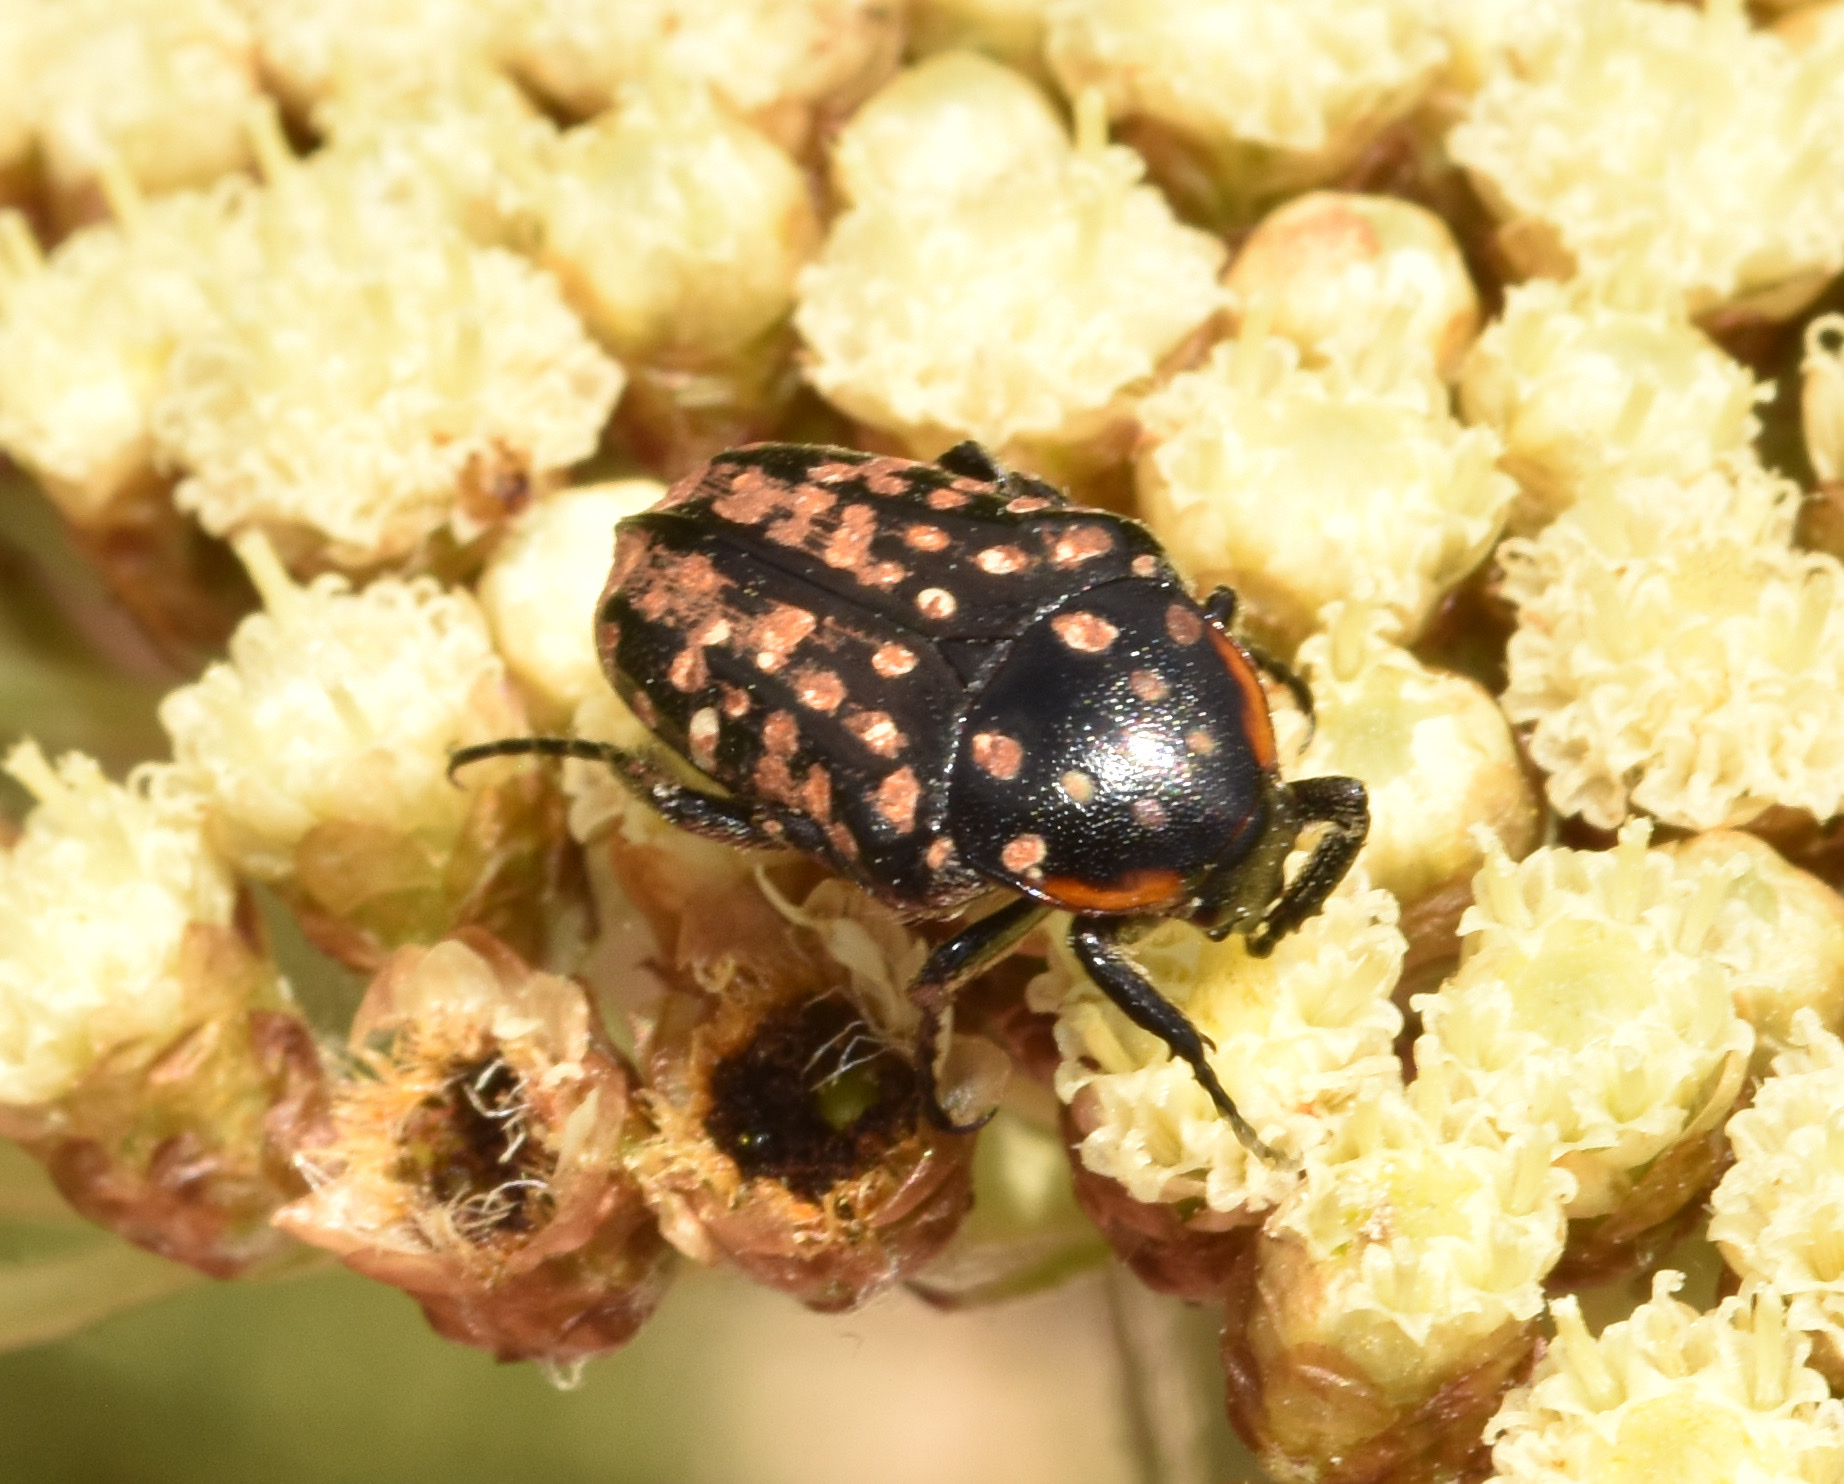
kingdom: Animalia
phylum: Arthropoda
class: Insecta
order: Coleoptera
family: Scarabaeidae
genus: Oxythyrea
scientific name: Oxythyrea
